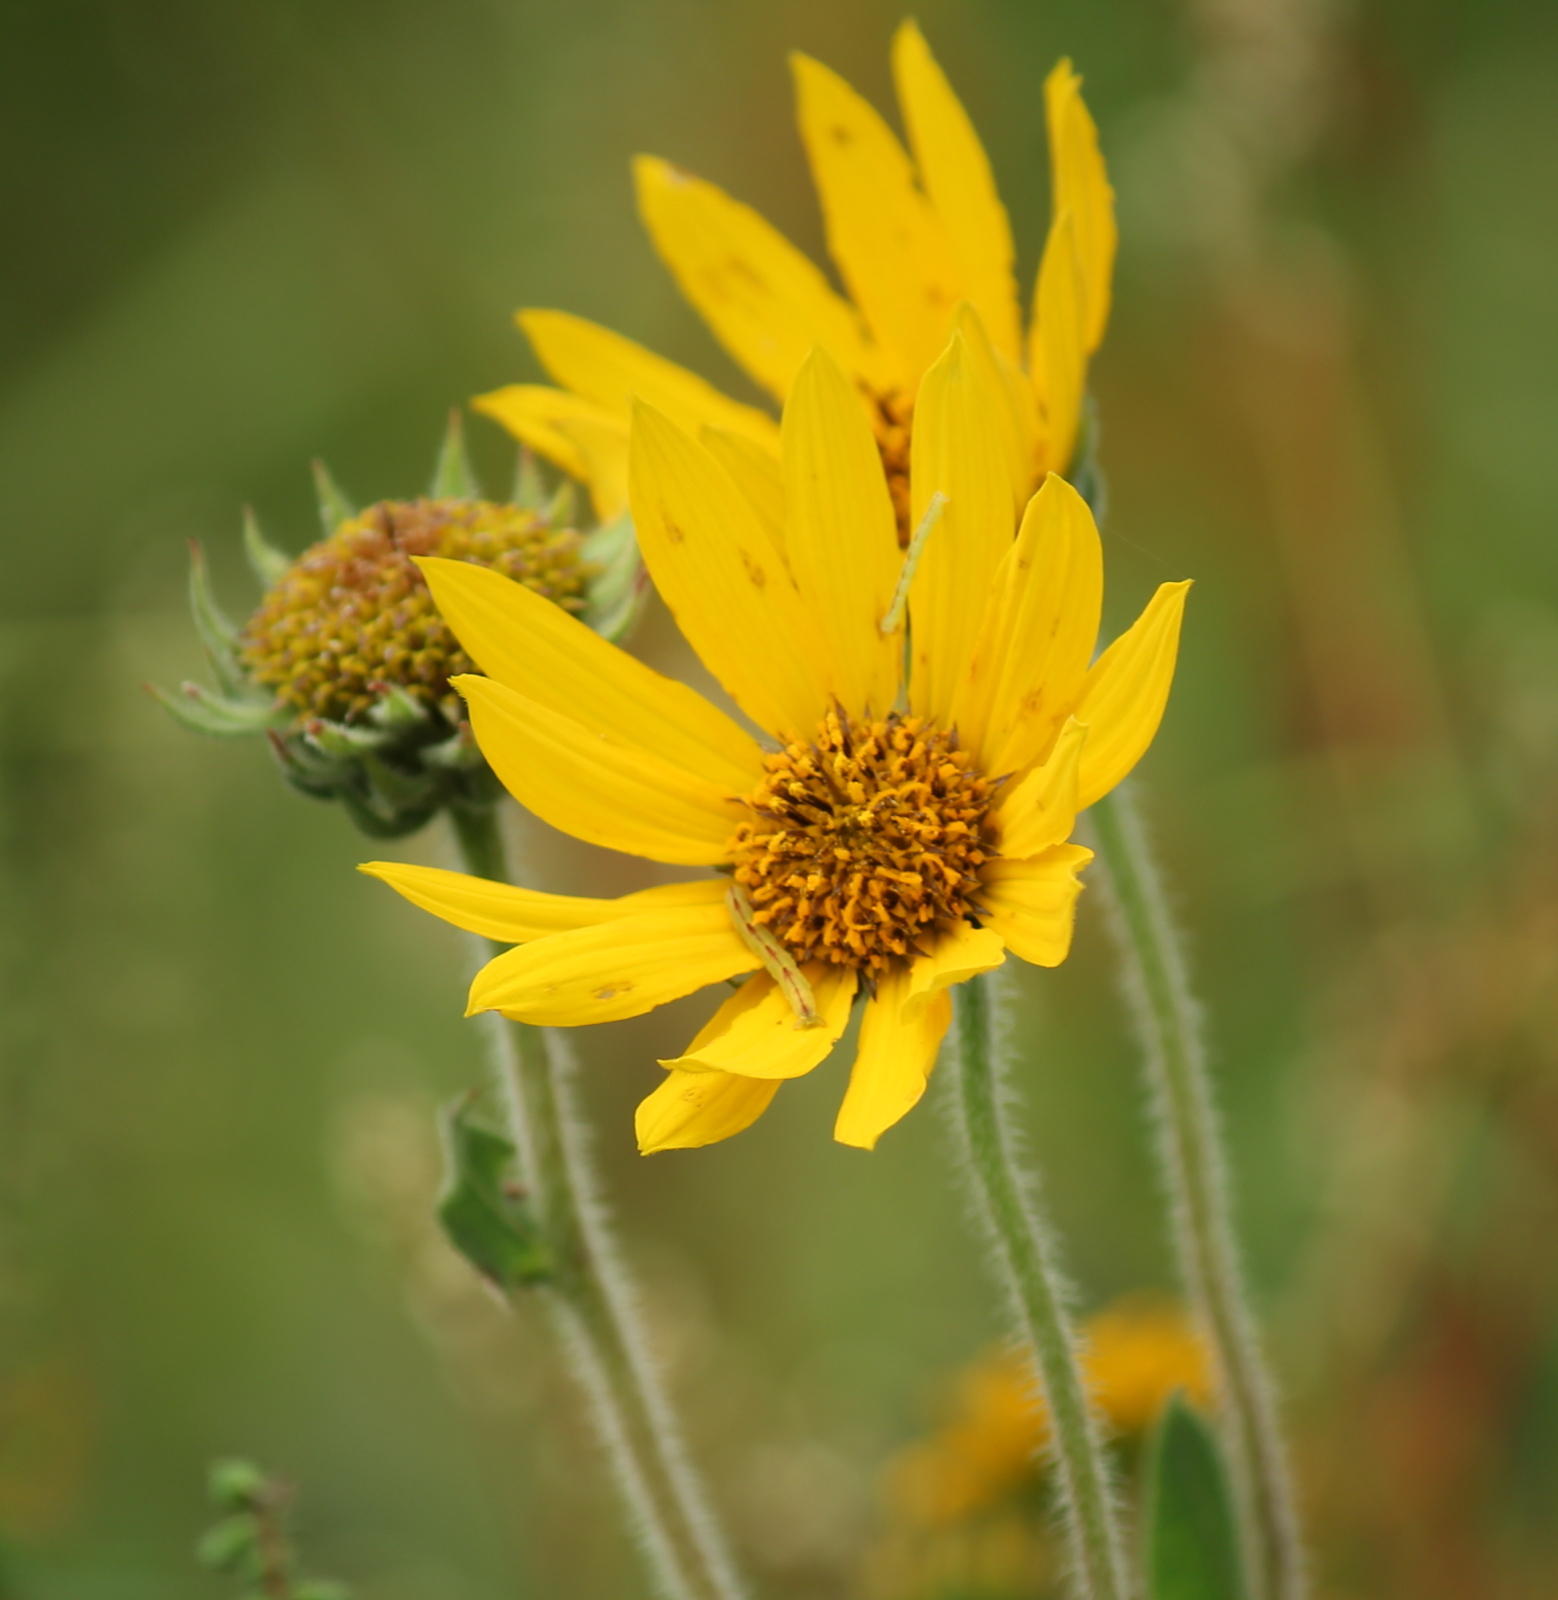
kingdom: Plantae
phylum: Tracheophyta
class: Magnoliopsida
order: Asterales
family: Asteraceae
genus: Helianthus
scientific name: Helianthus mollis
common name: Ashy sunflower
